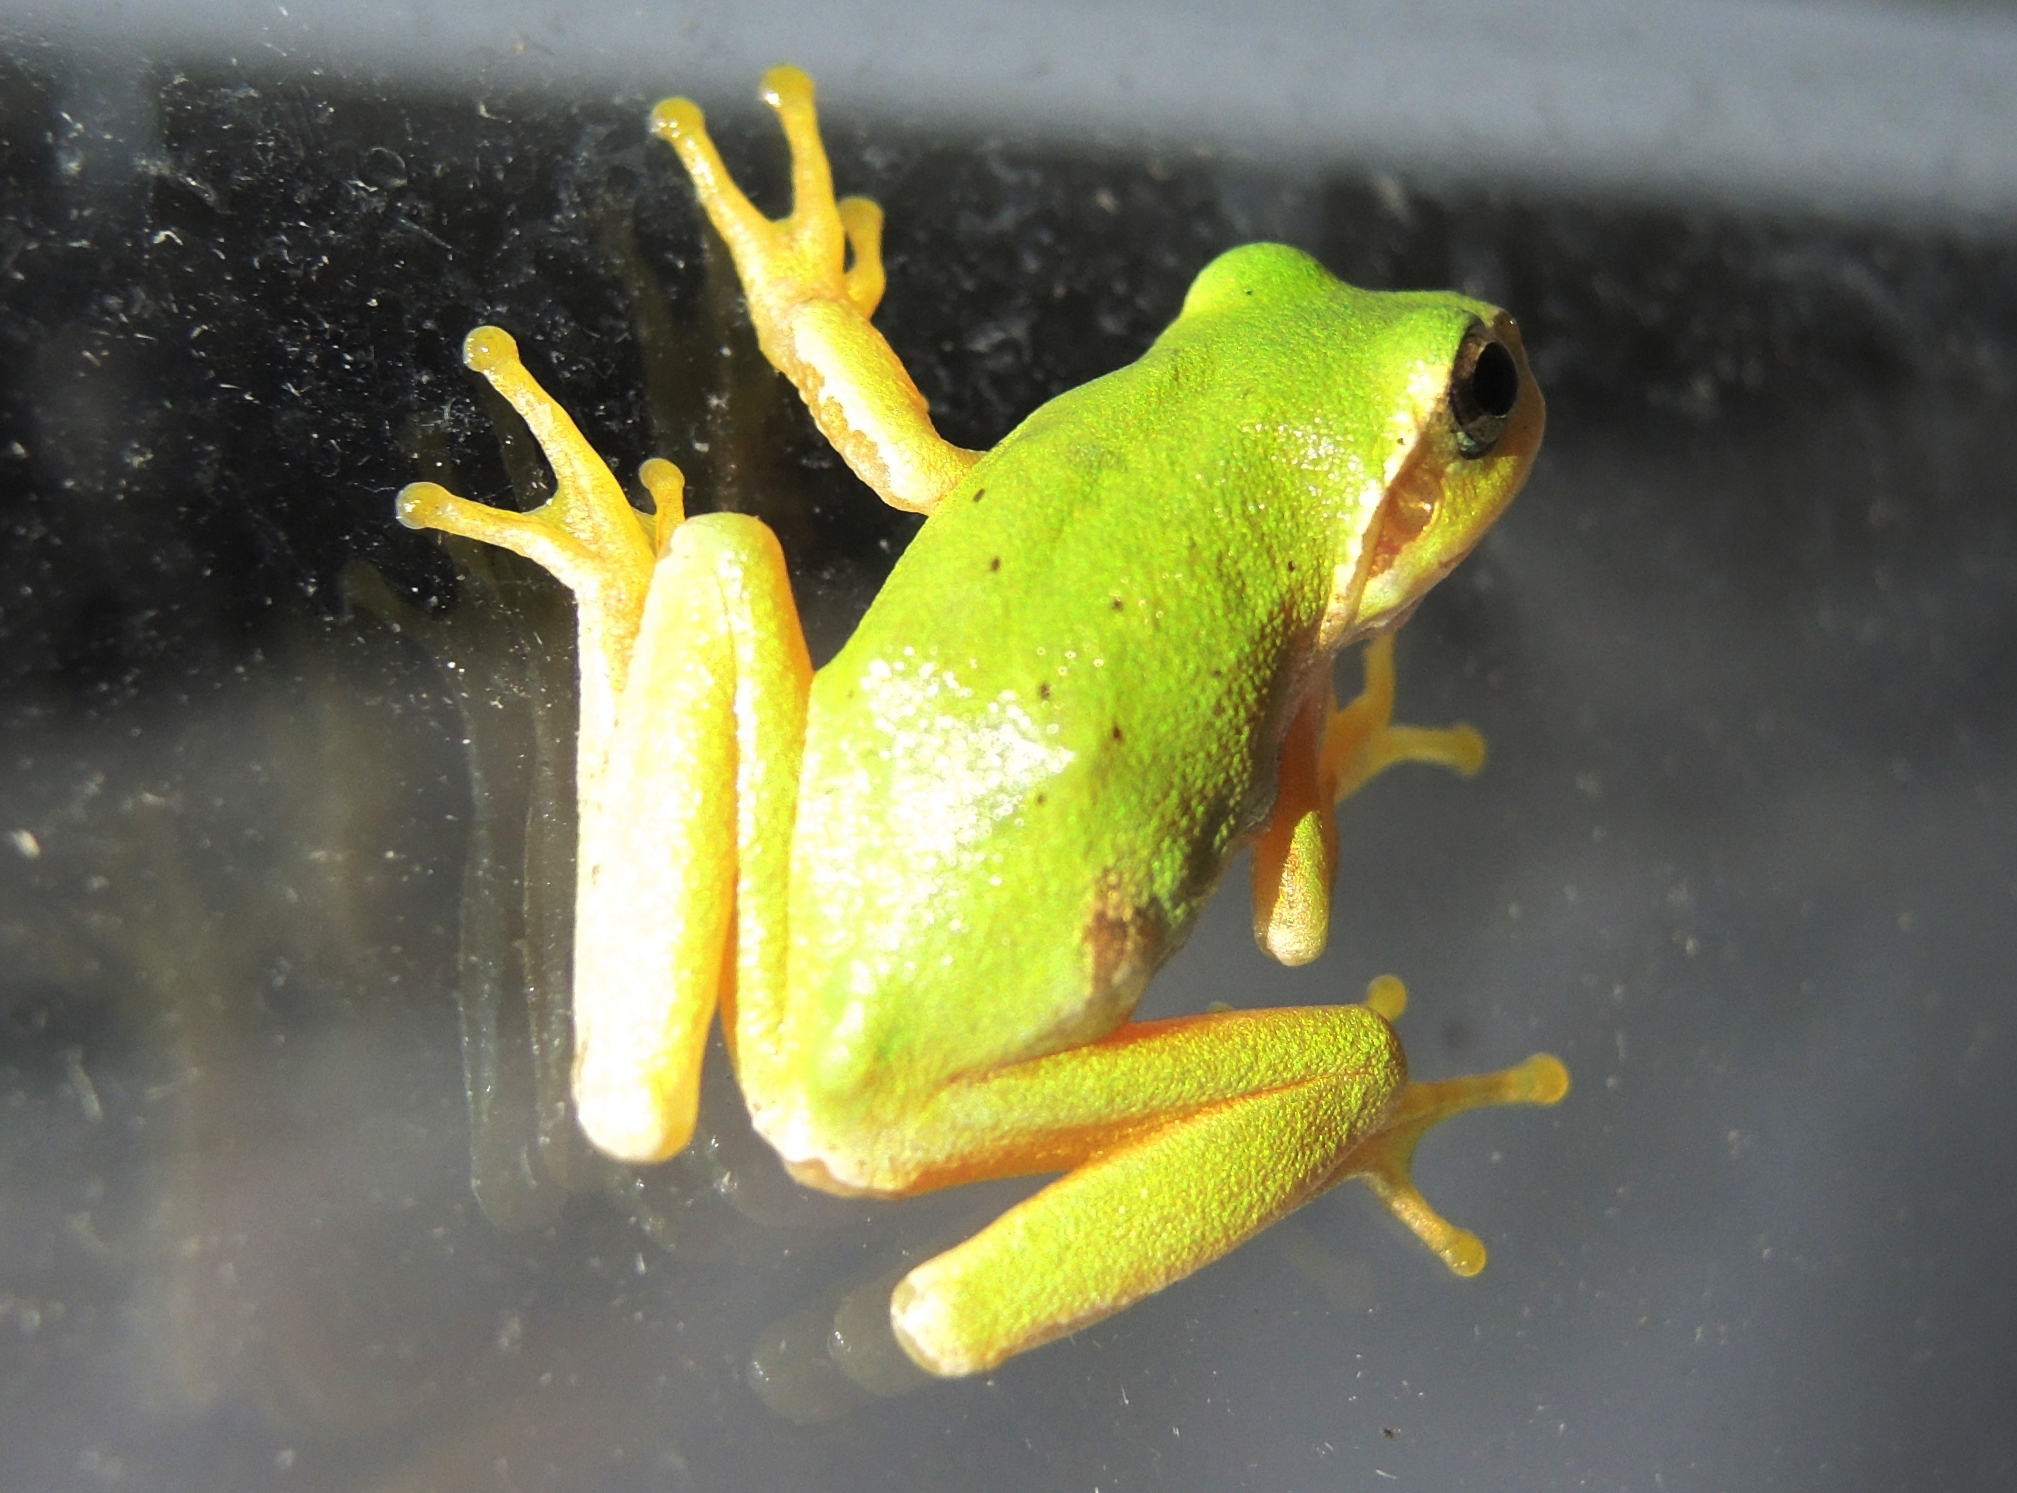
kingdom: Animalia
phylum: Chordata
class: Amphibia
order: Anura
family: Hylidae
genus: Hyla
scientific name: Hyla orientalis
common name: Caucasian treefrog
